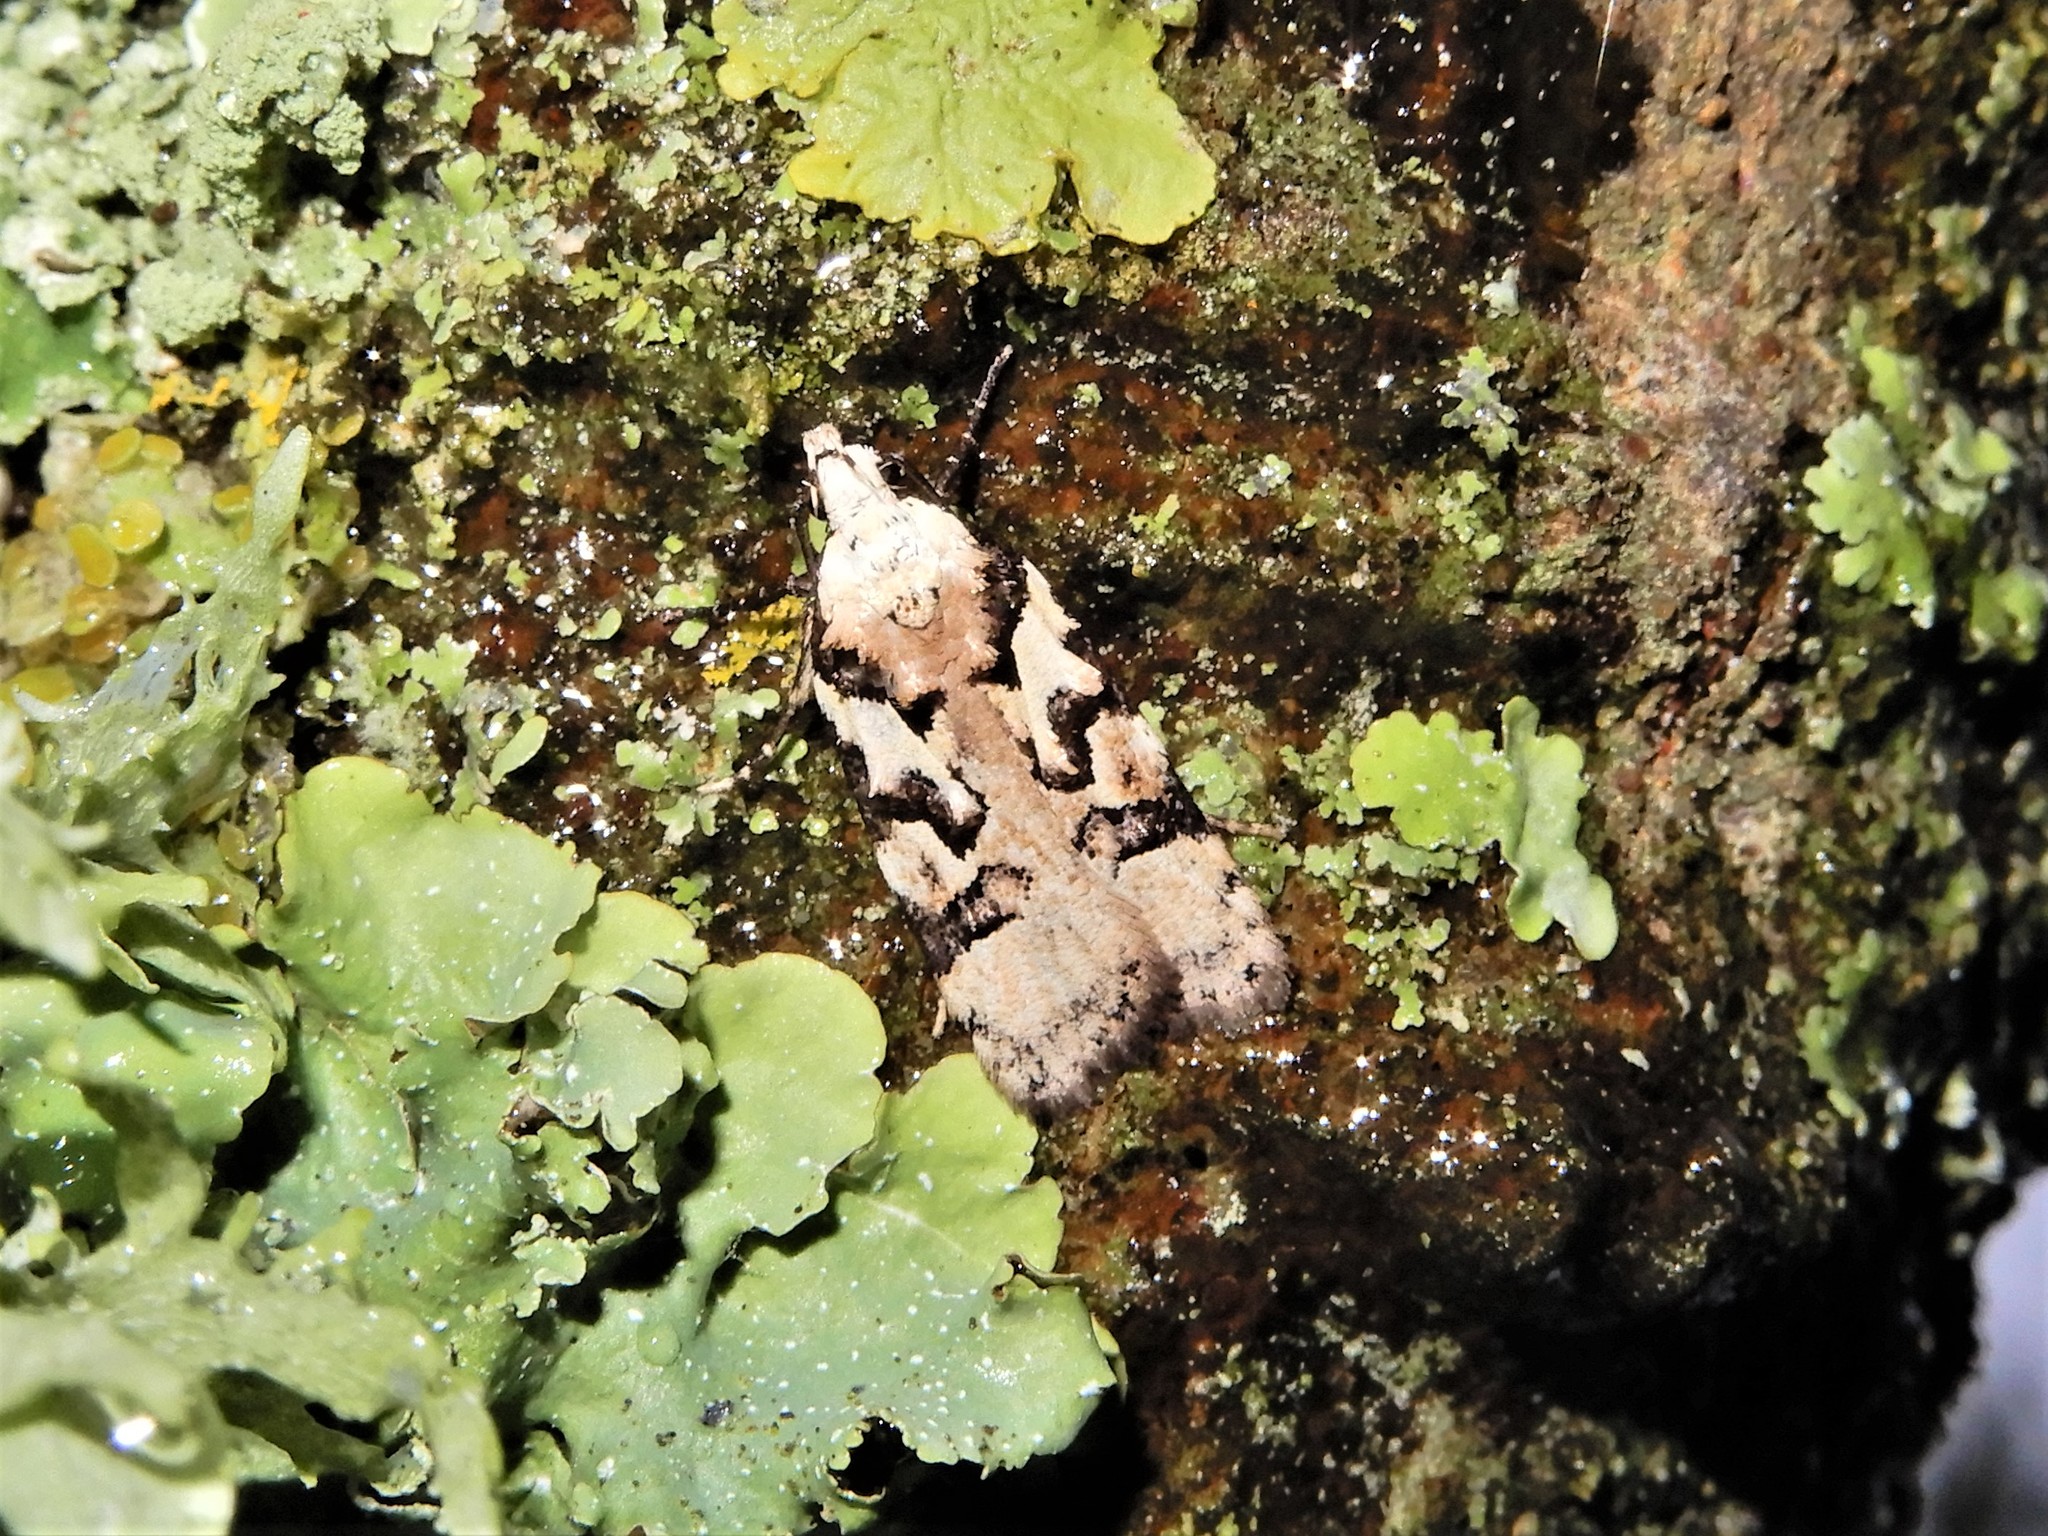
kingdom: Animalia
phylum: Arthropoda
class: Insecta
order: Lepidoptera
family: Oecophoridae
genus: Izatha
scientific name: Izatha epiphanes
